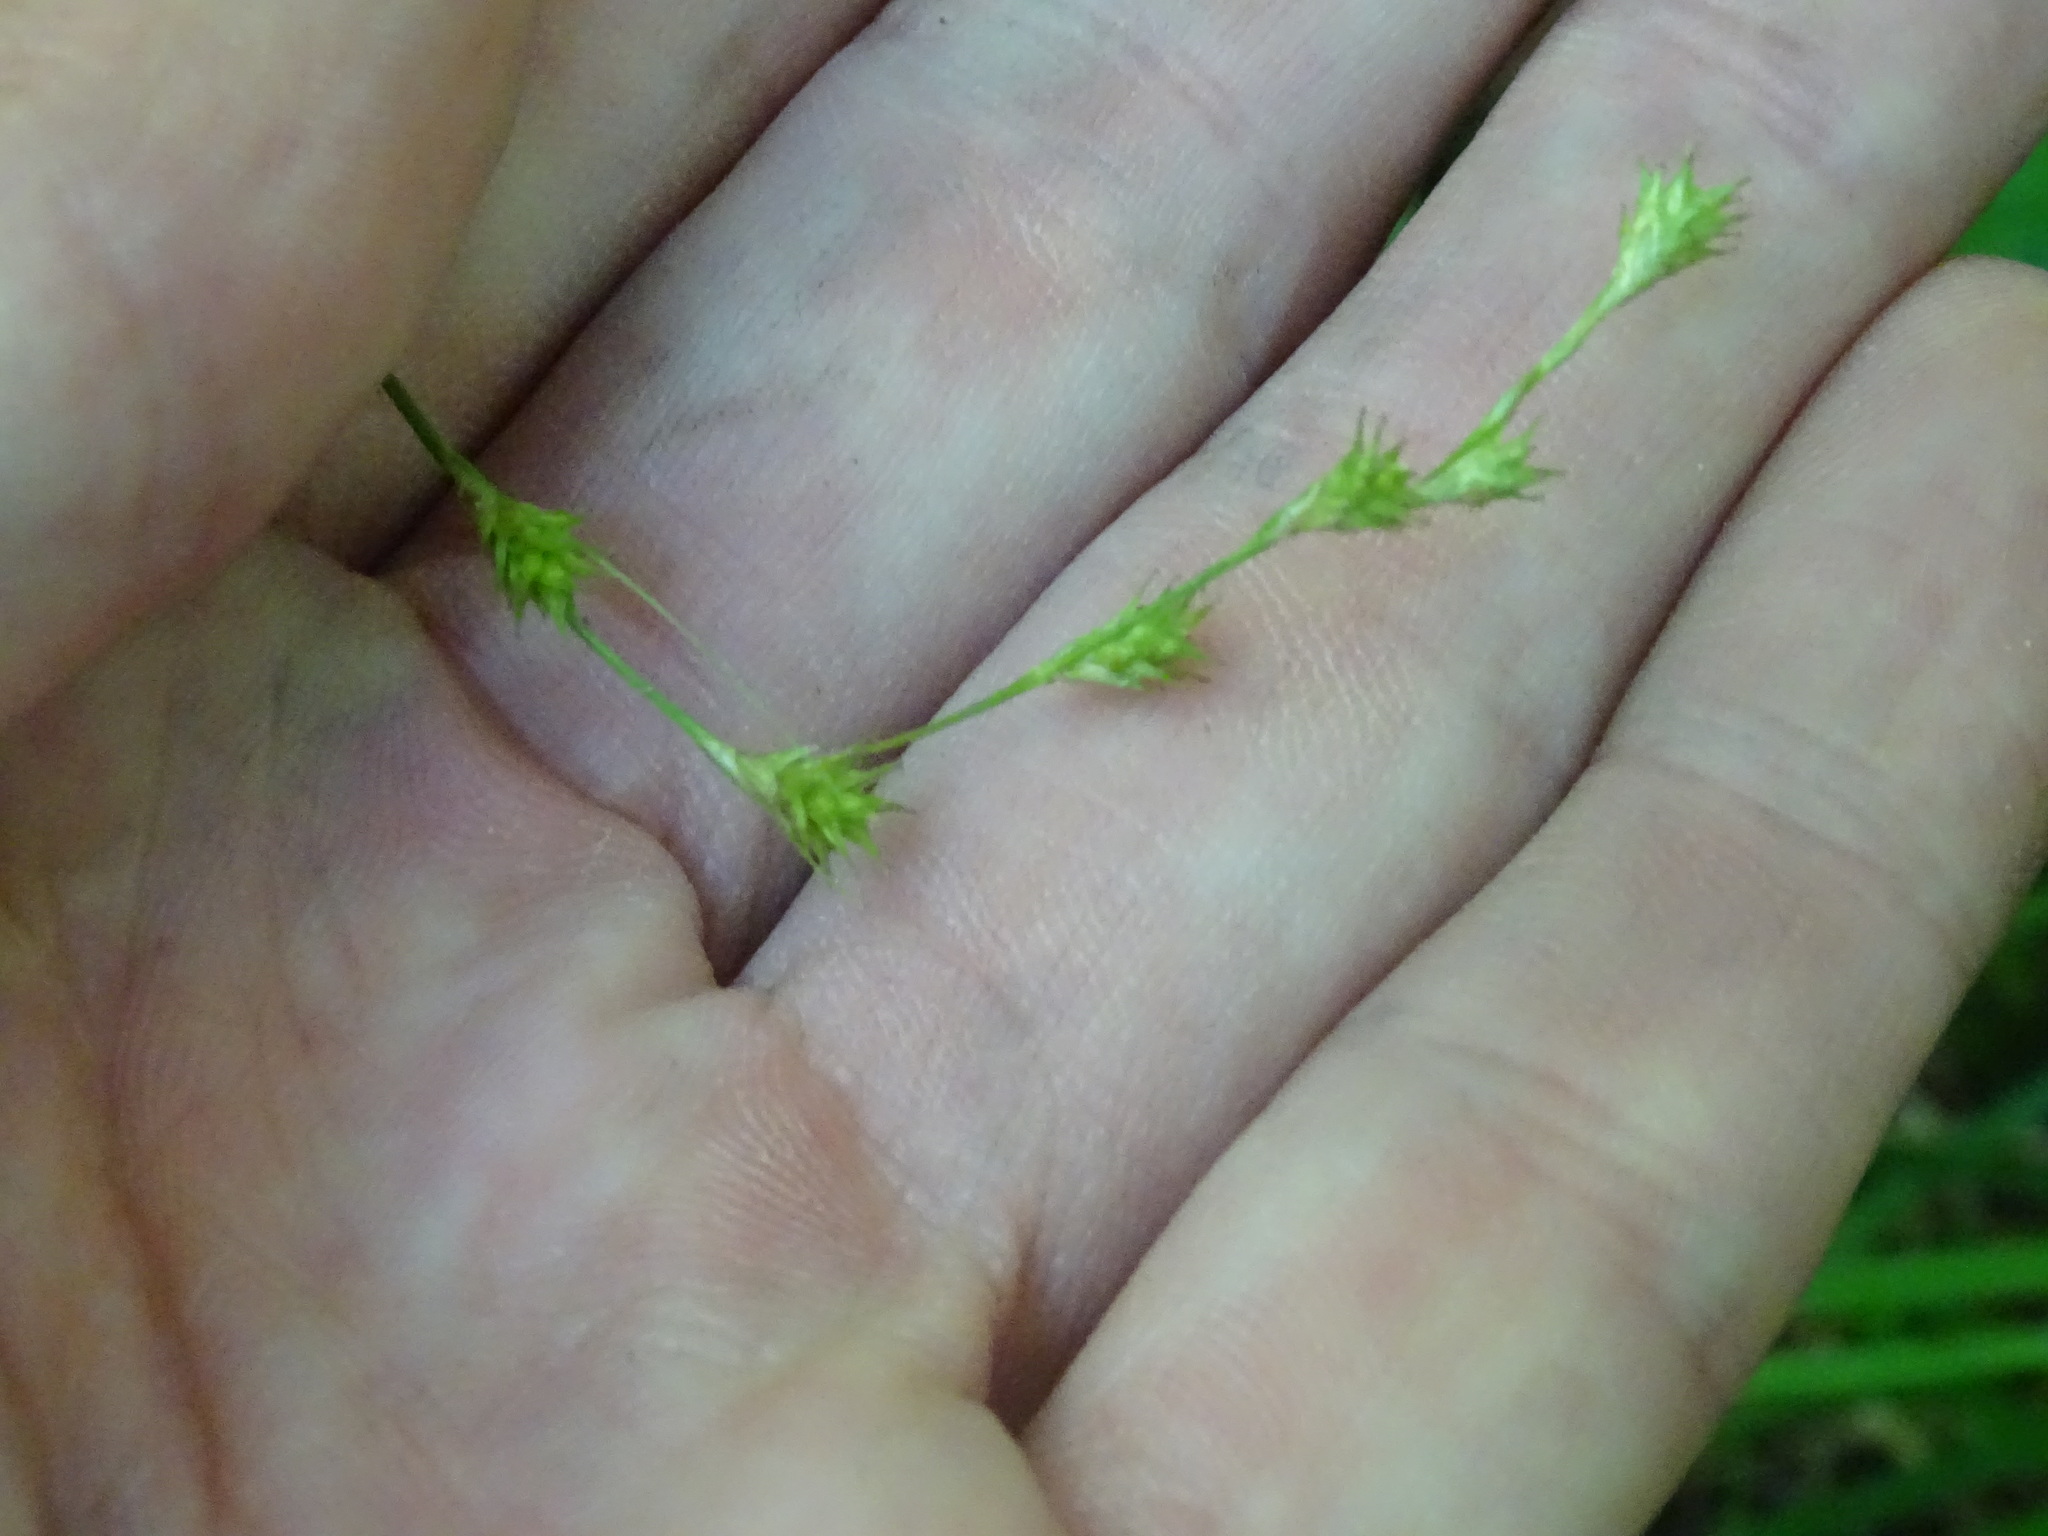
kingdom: Plantae
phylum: Tracheophyta
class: Liliopsida
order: Poales
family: Cyperaceae
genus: Carex
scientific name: Carex projecta
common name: Loose-headed oval sedge
